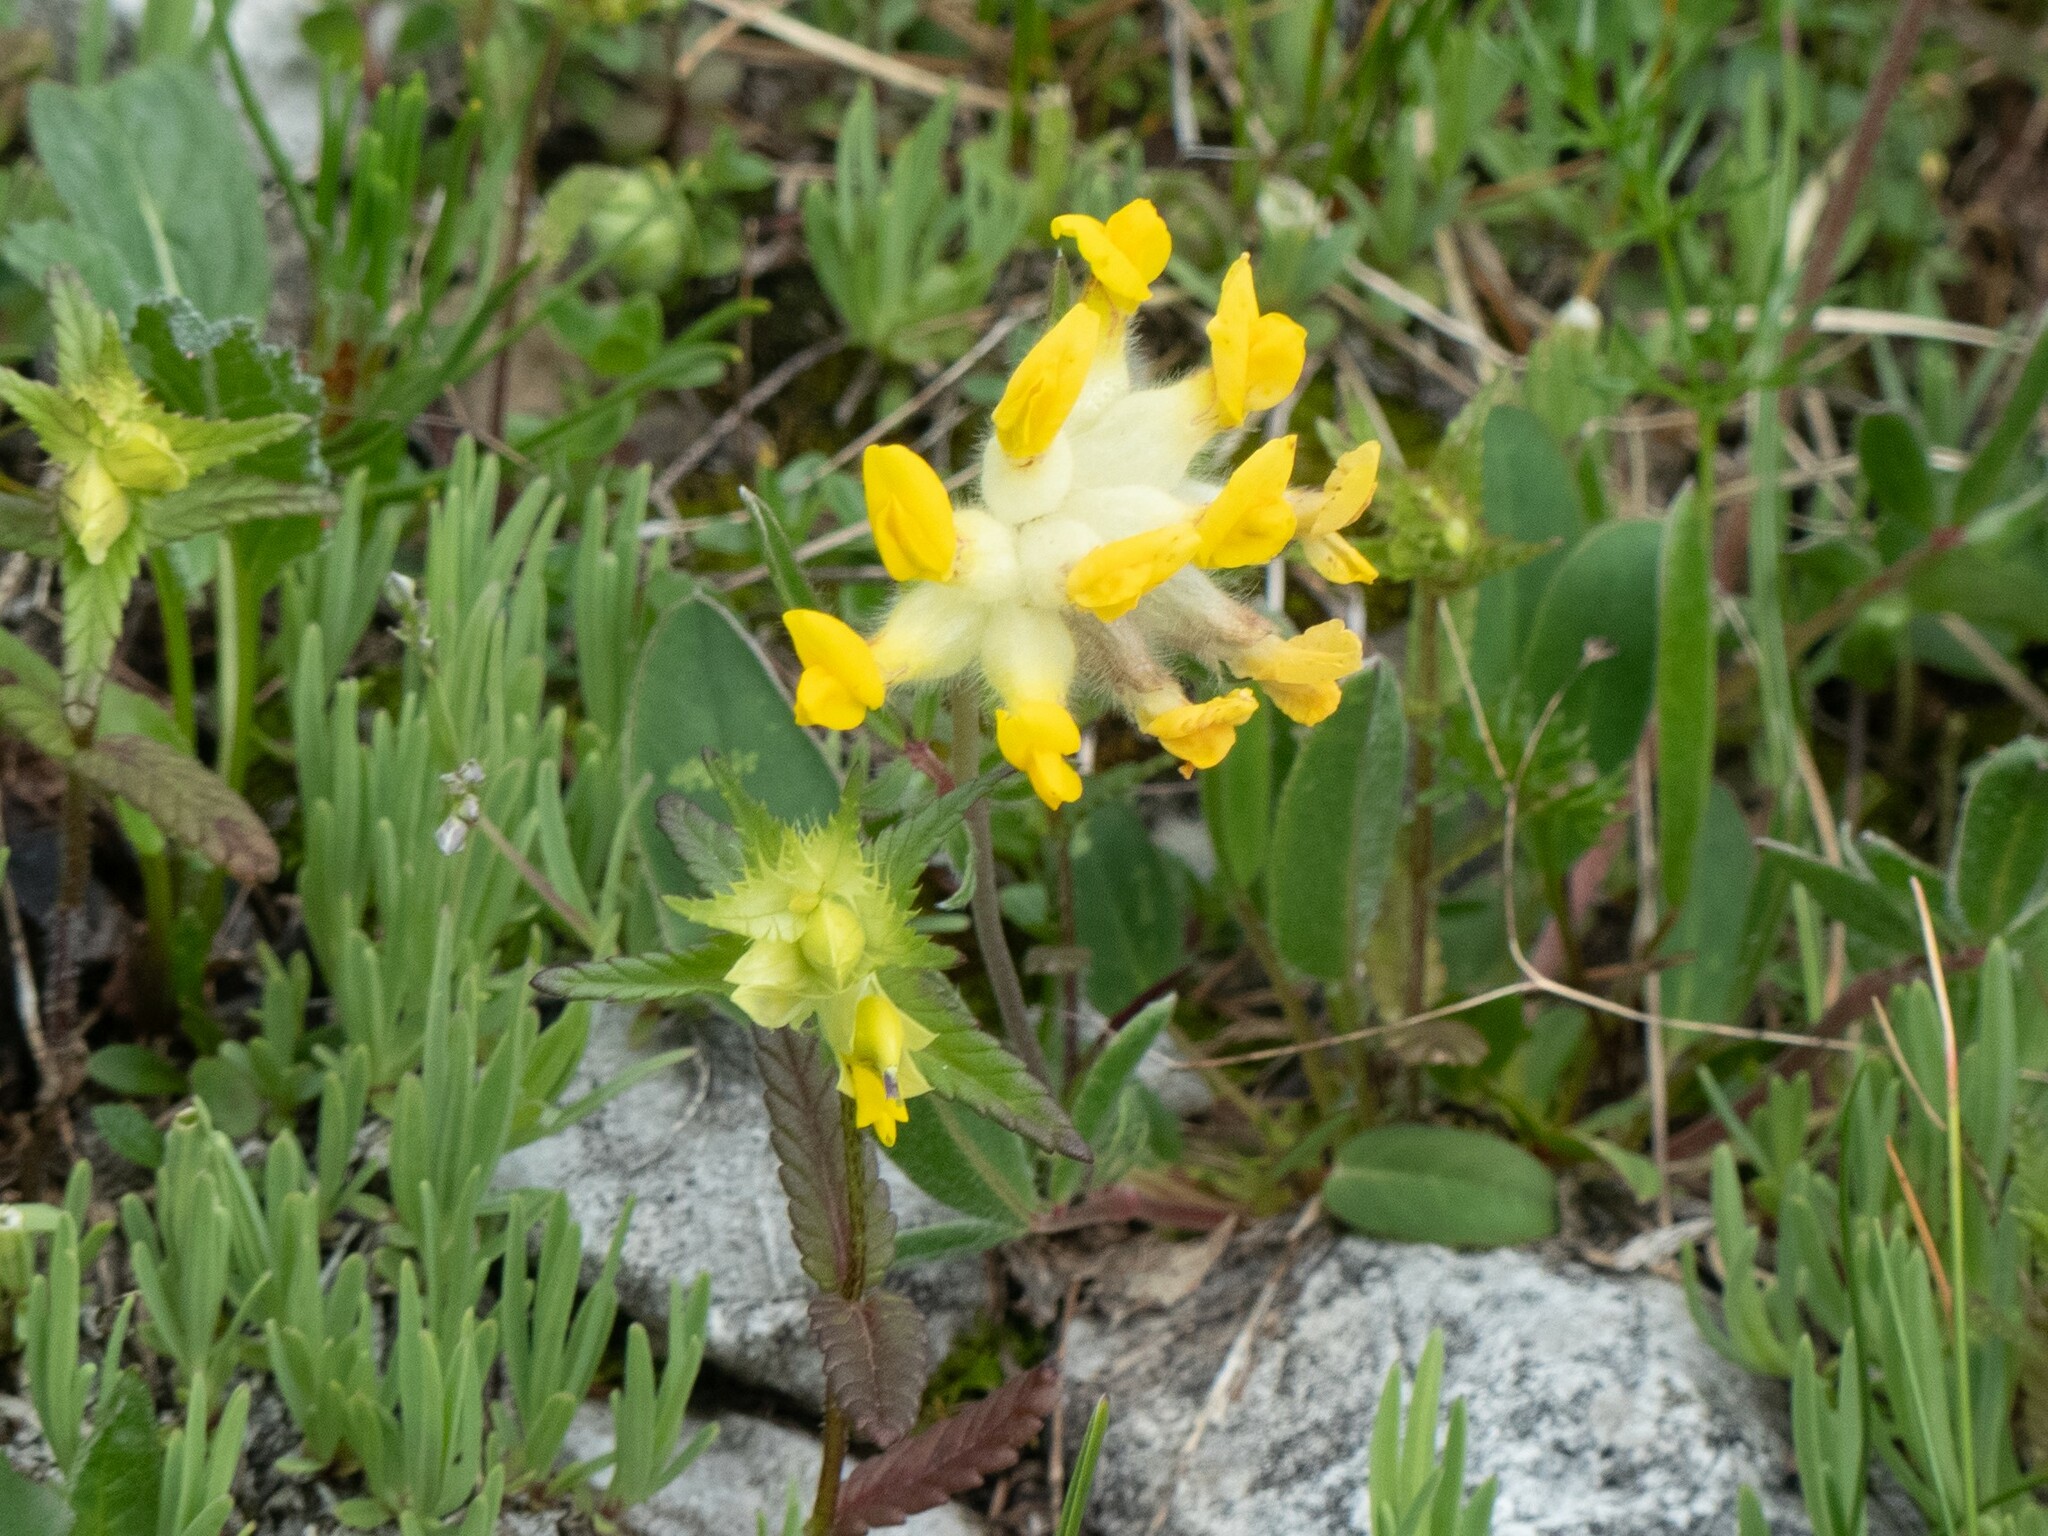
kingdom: Plantae
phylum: Tracheophyta
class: Magnoliopsida
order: Fabales
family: Fabaceae
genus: Anthyllis
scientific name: Anthyllis vulneraria
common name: Kidney vetch
